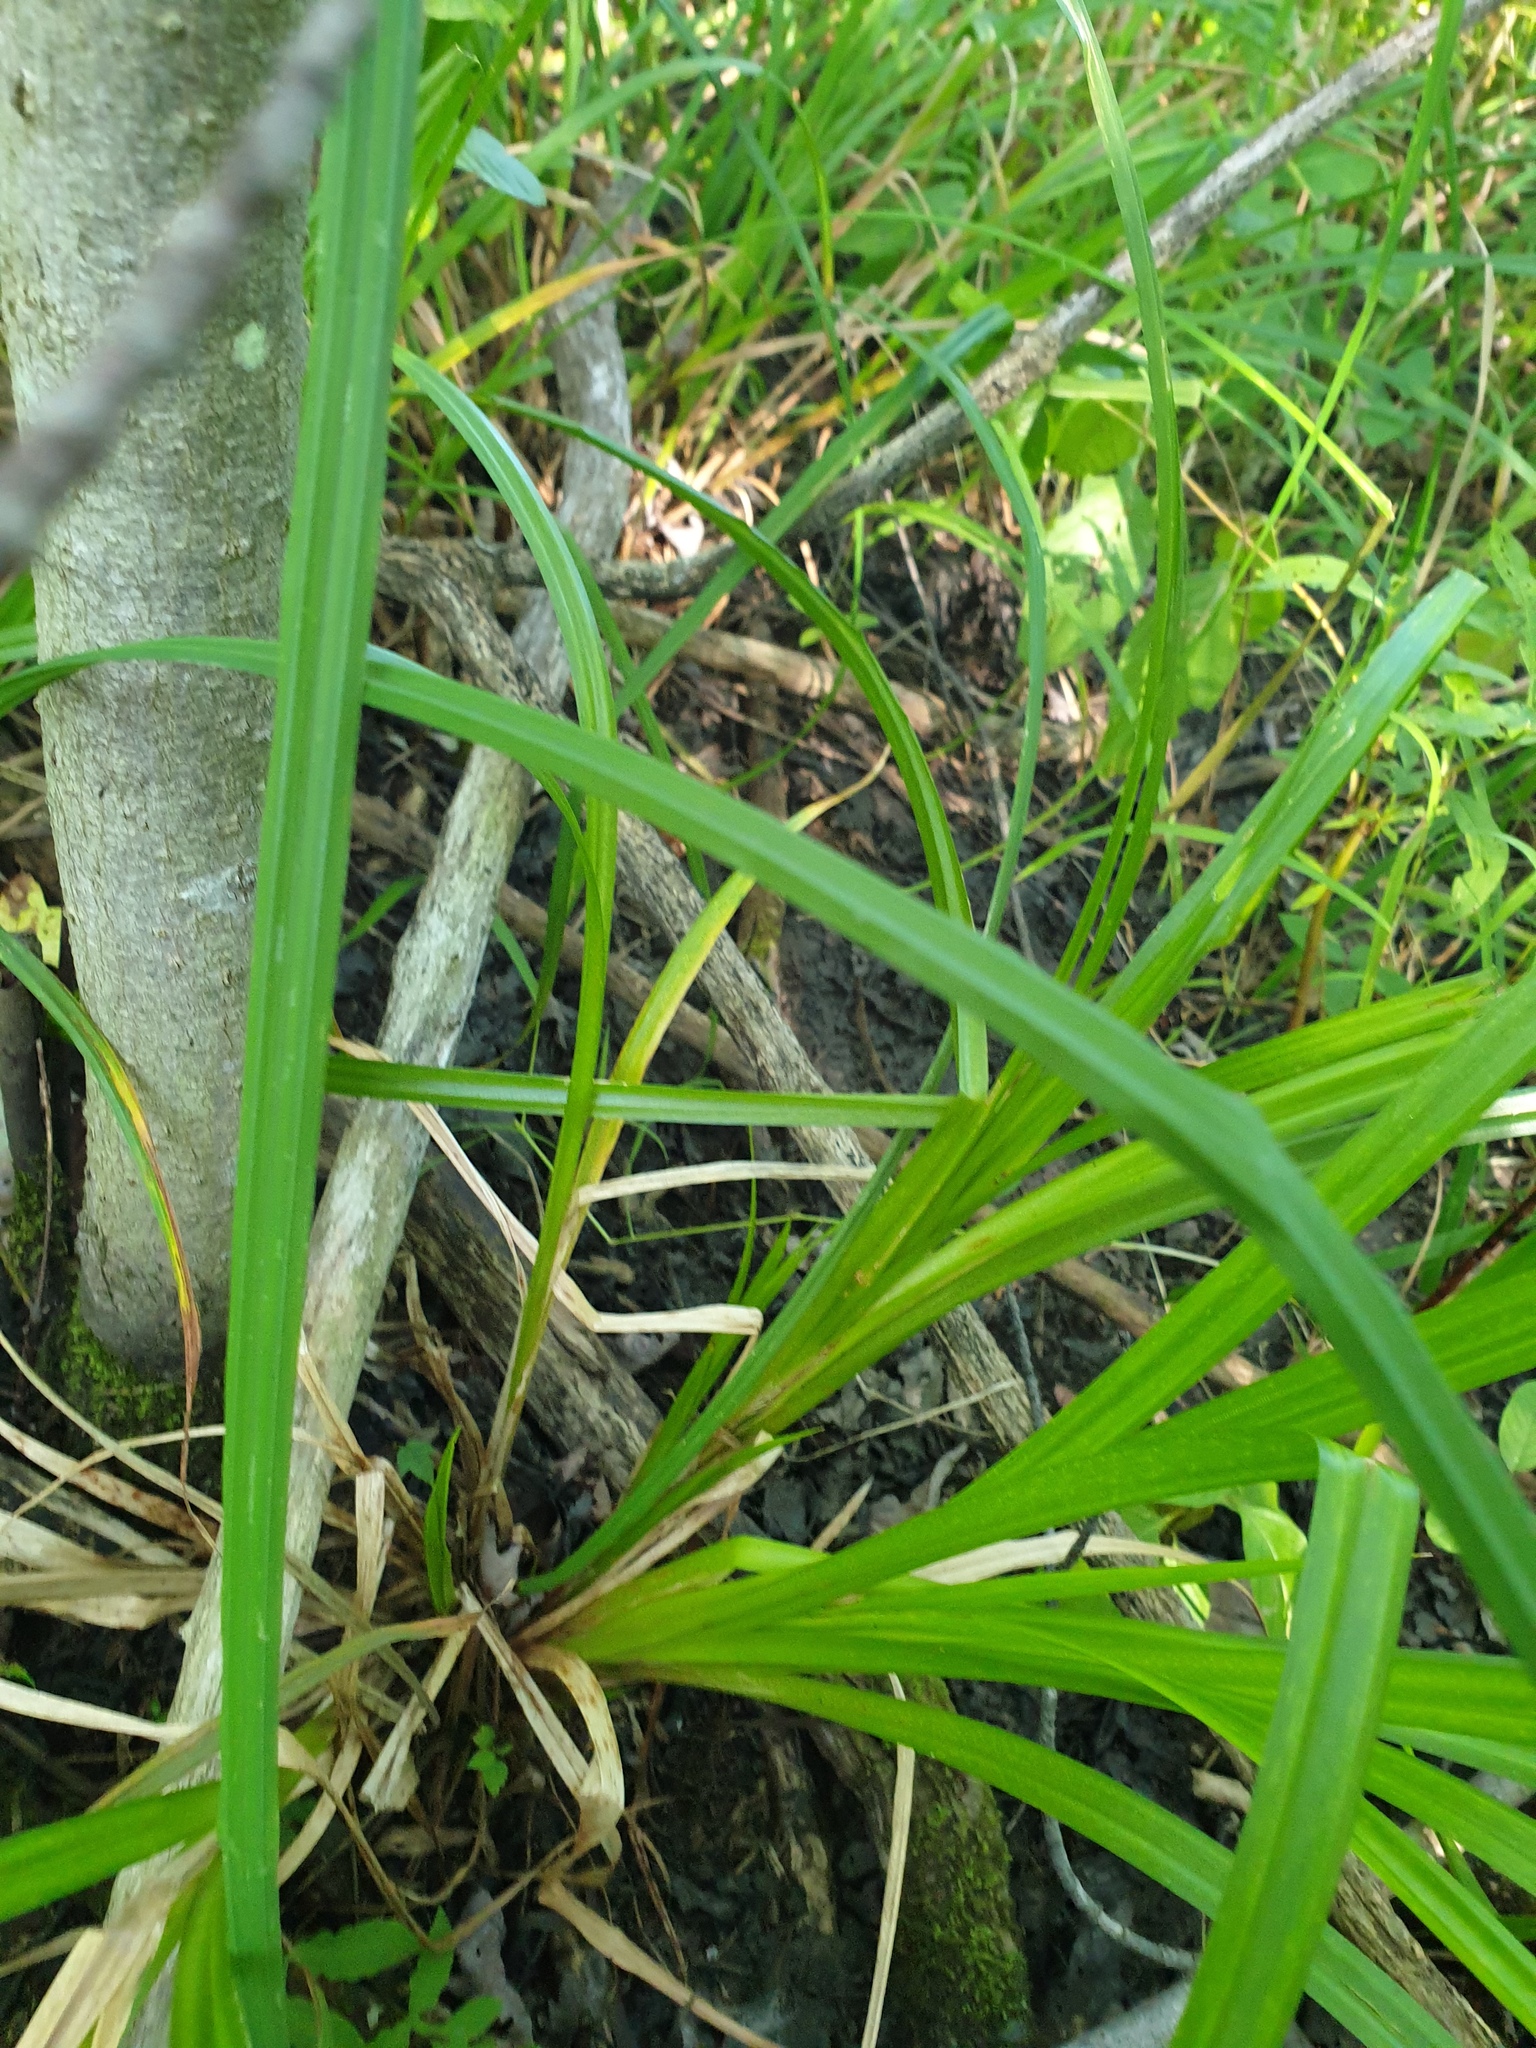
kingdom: Plantae
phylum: Tracheophyta
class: Liliopsida
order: Poales
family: Cyperaceae
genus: Carex
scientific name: Carex comosa
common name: Bristly sedge
